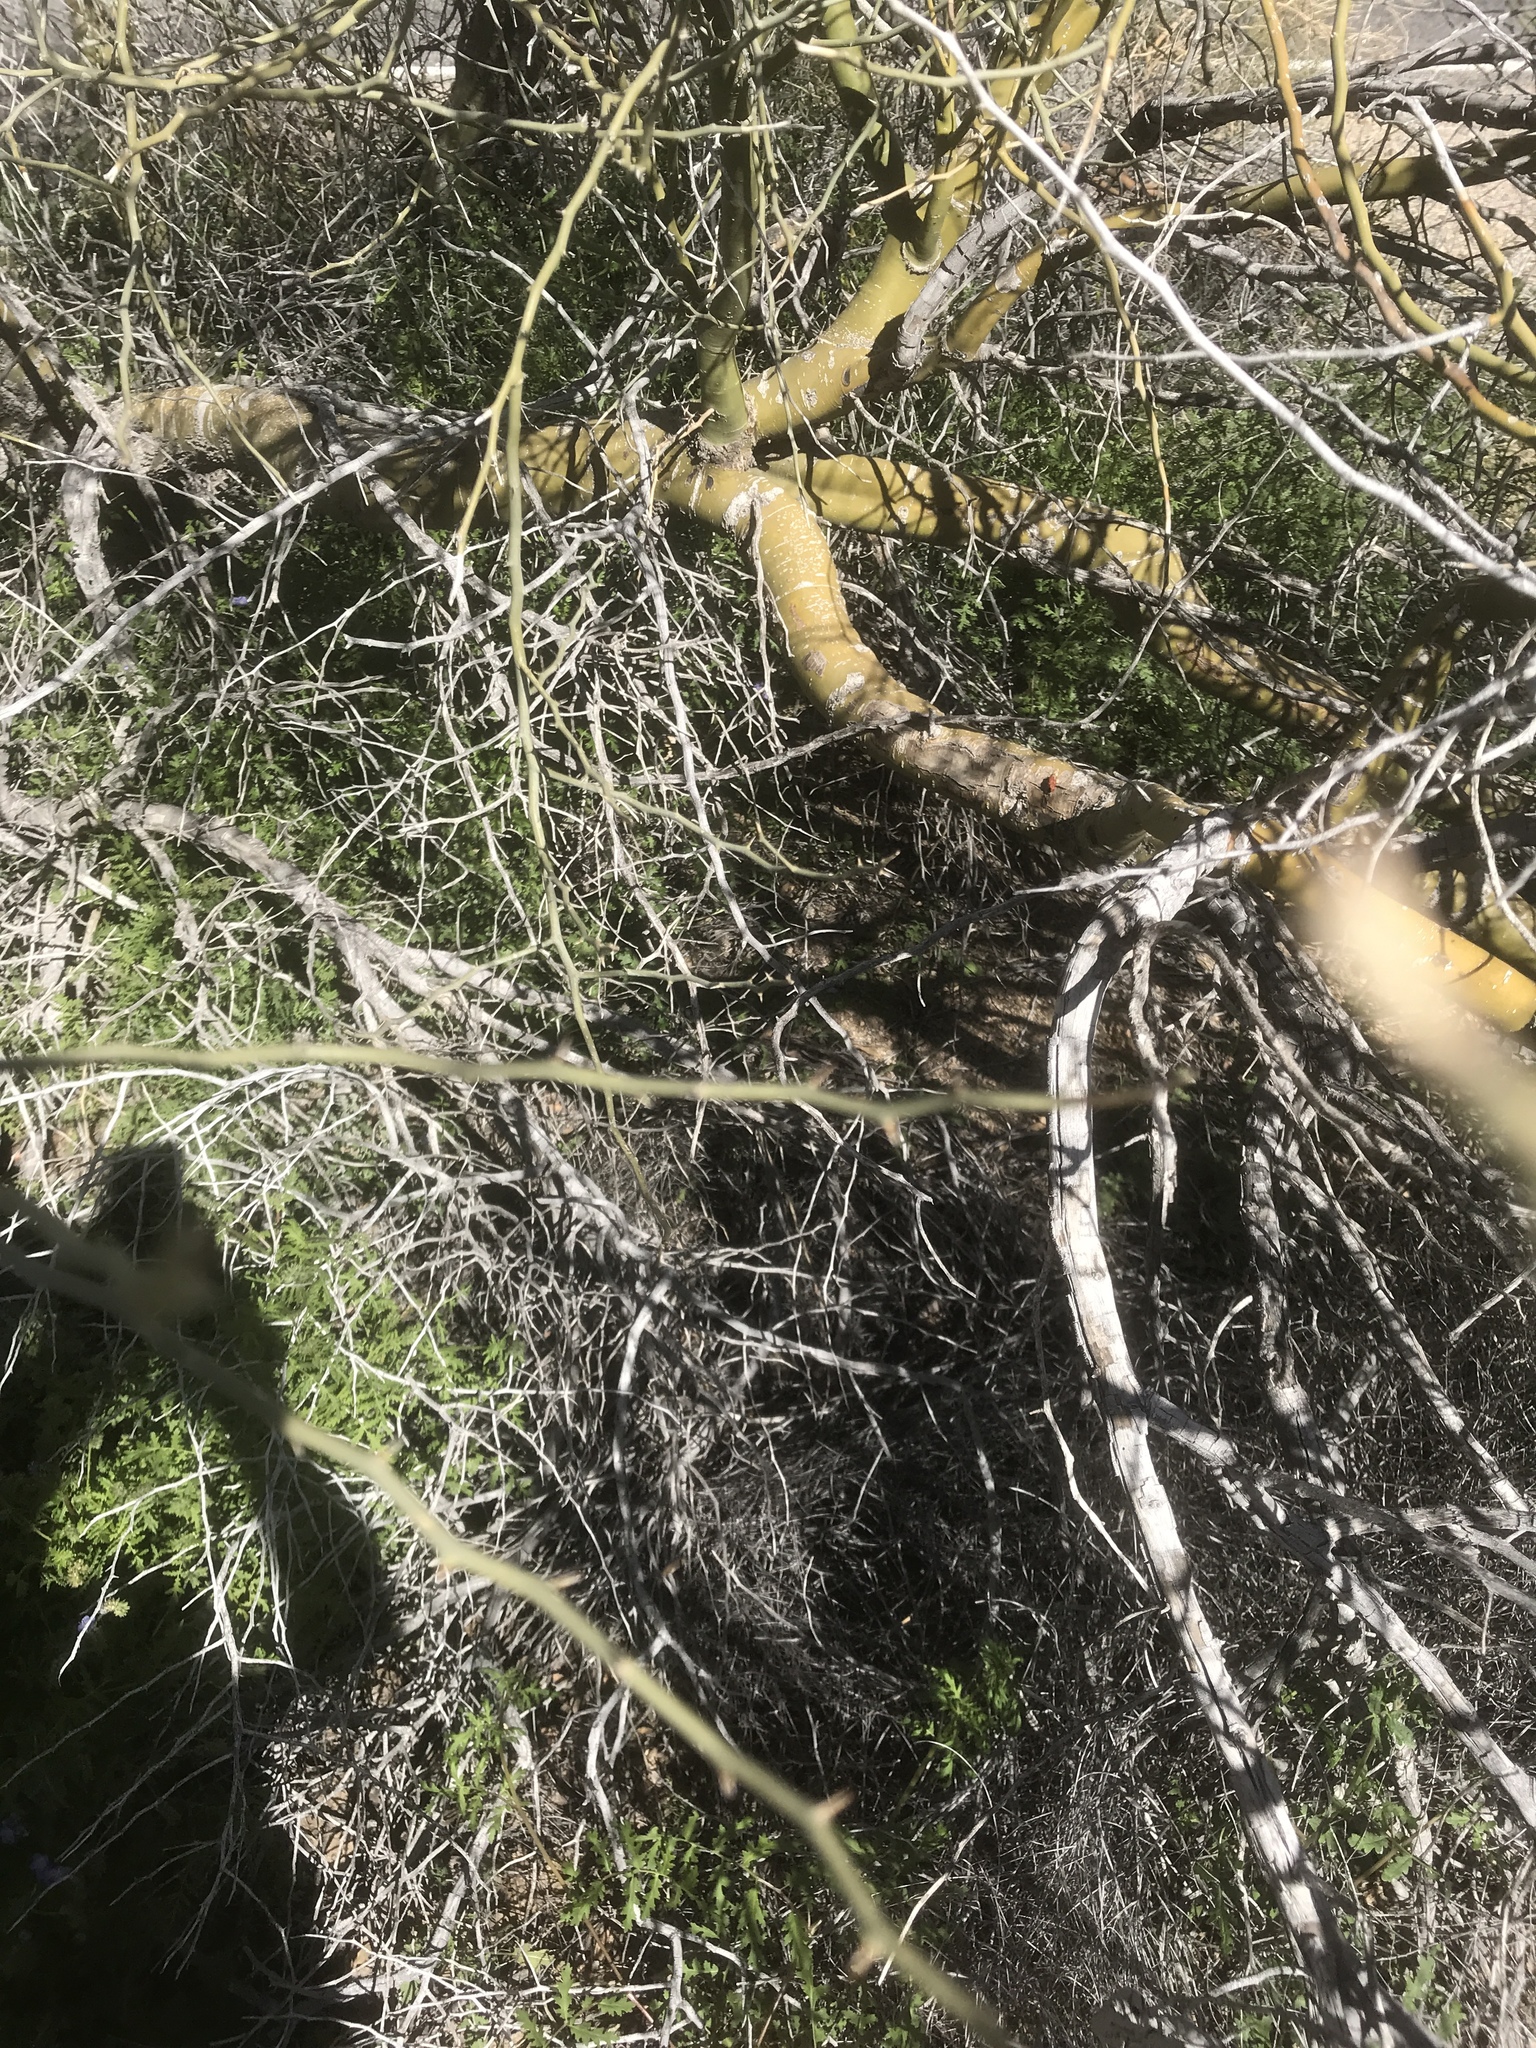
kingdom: Plantae
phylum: Tracheophyta
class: Magnoliopsida
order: Fabales
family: Fabaceae
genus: Parkinsonia
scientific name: Parkinsonia florida
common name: Blue paloverde
